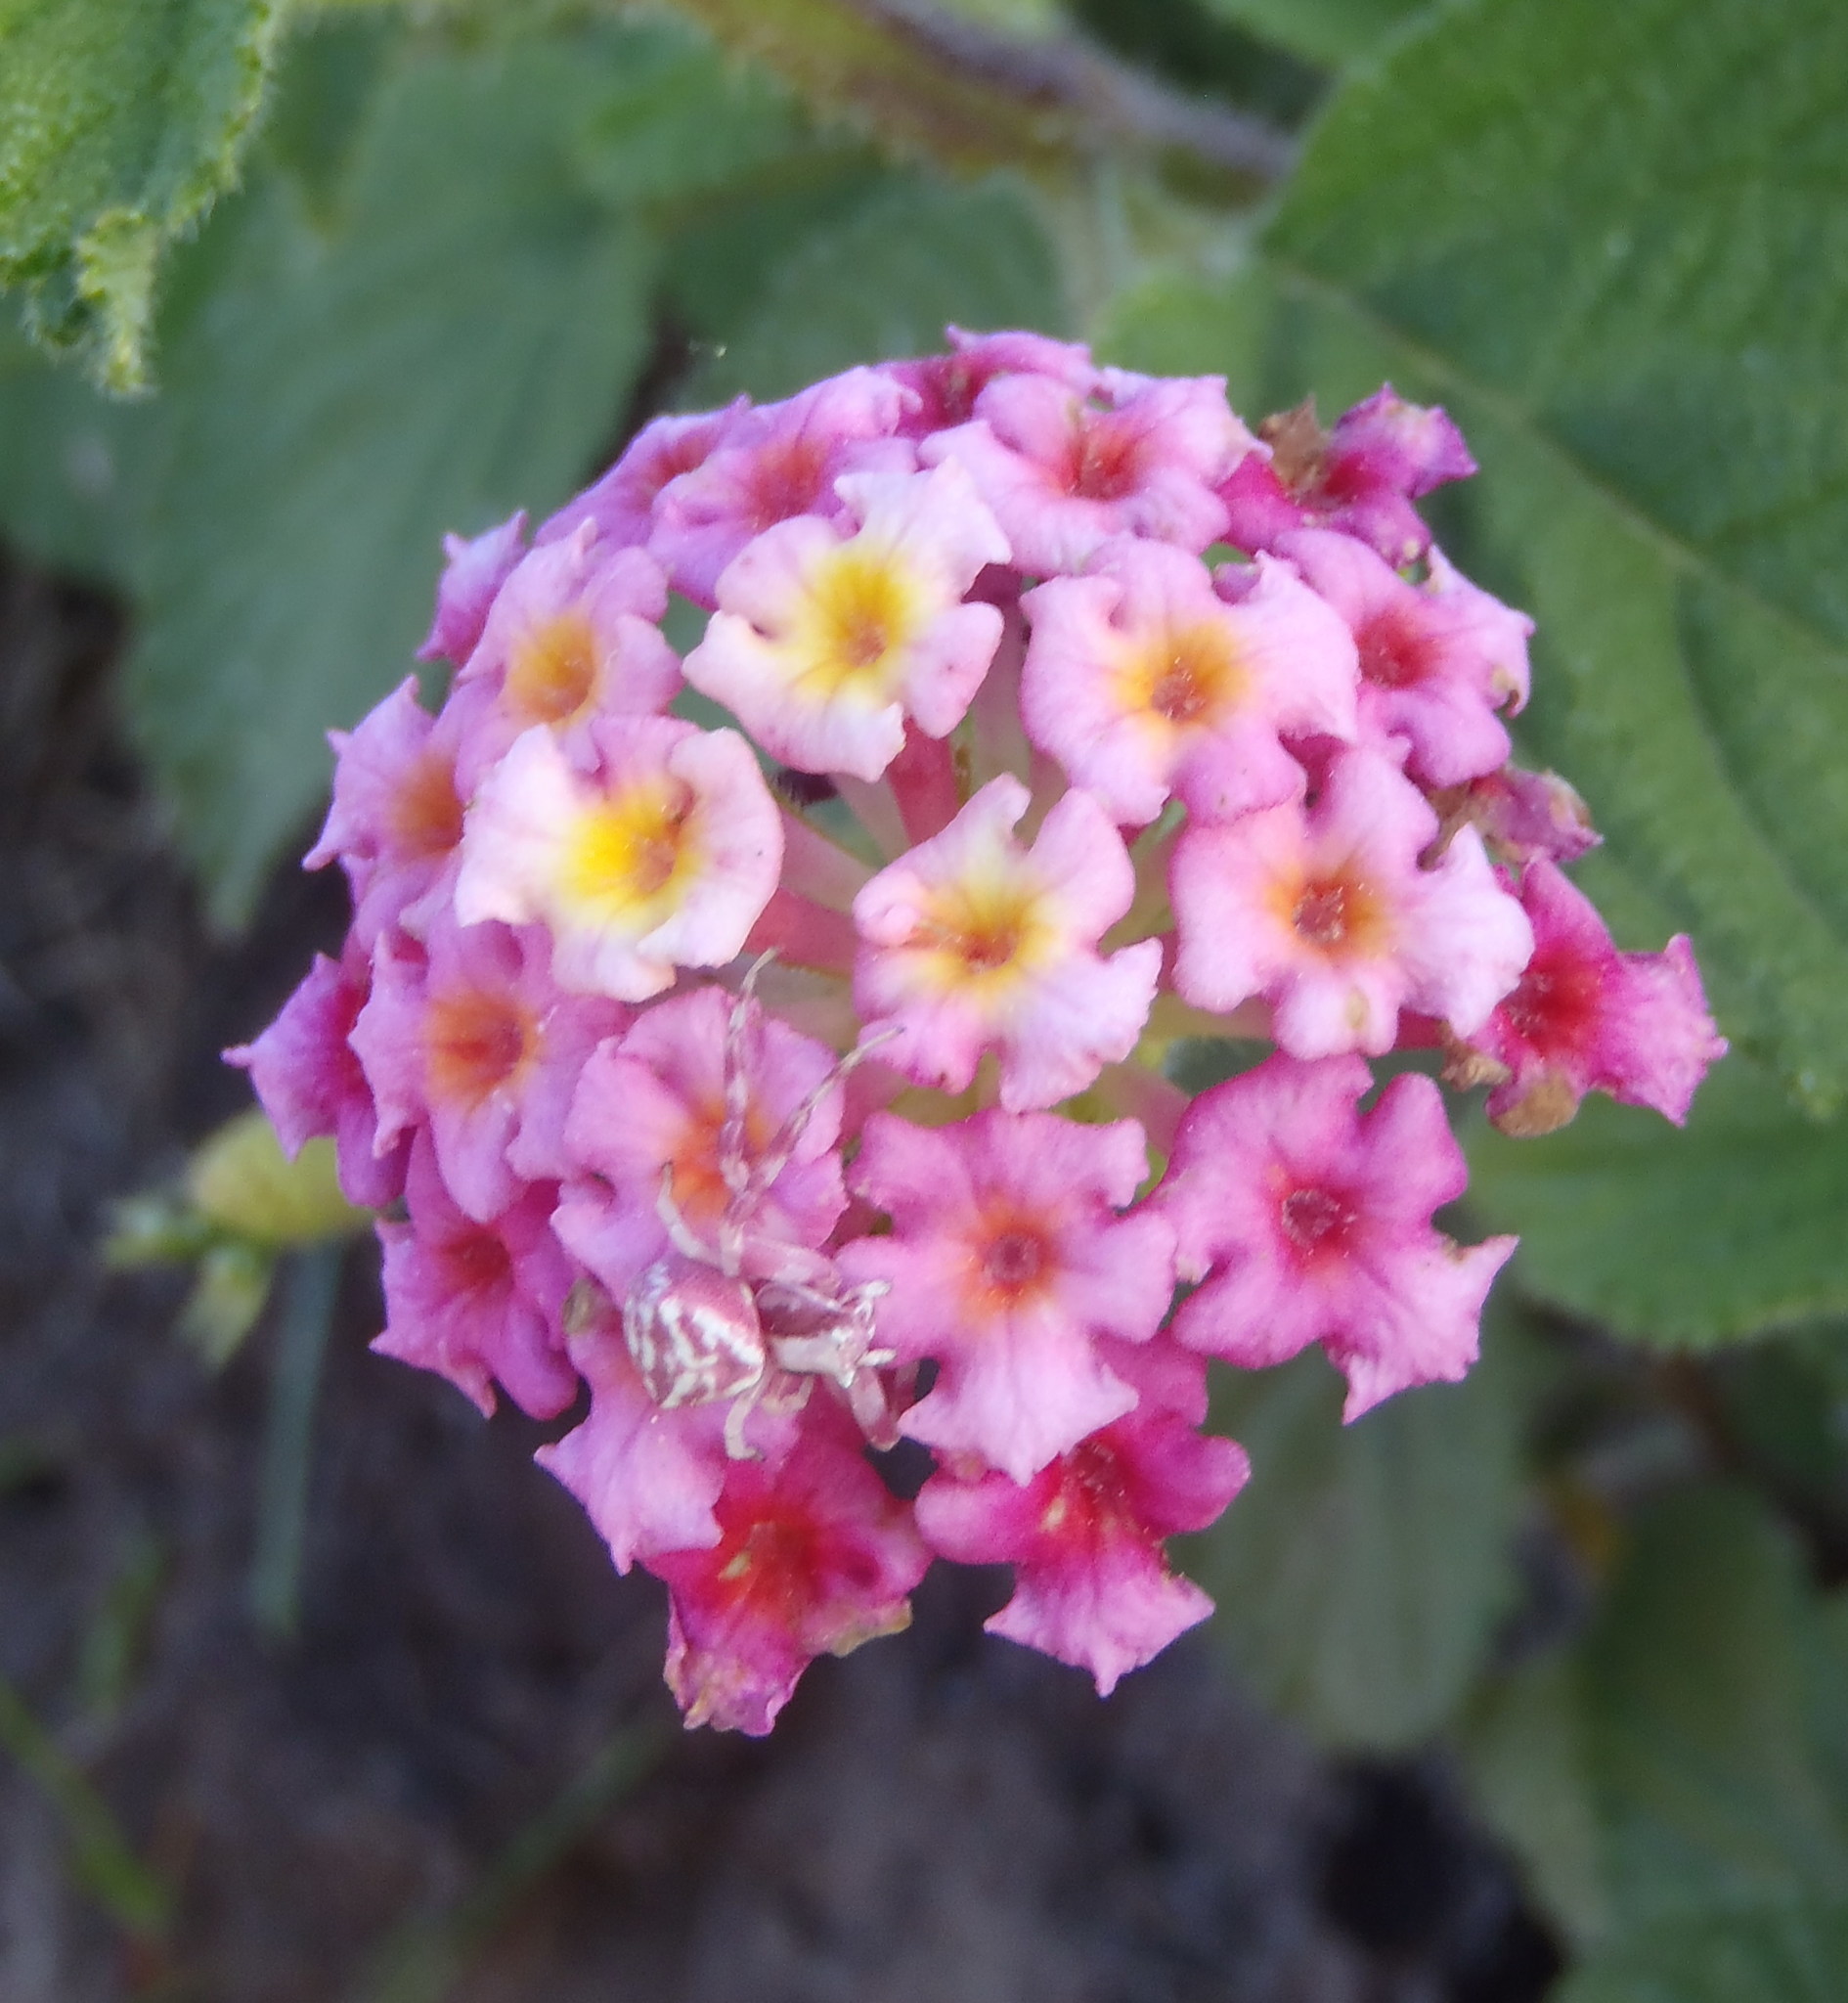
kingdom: Animalia
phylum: Arthropoda
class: Arachnida
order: Araneae
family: Thomisidae
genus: Thomisus
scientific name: Thomisus citrinellus
